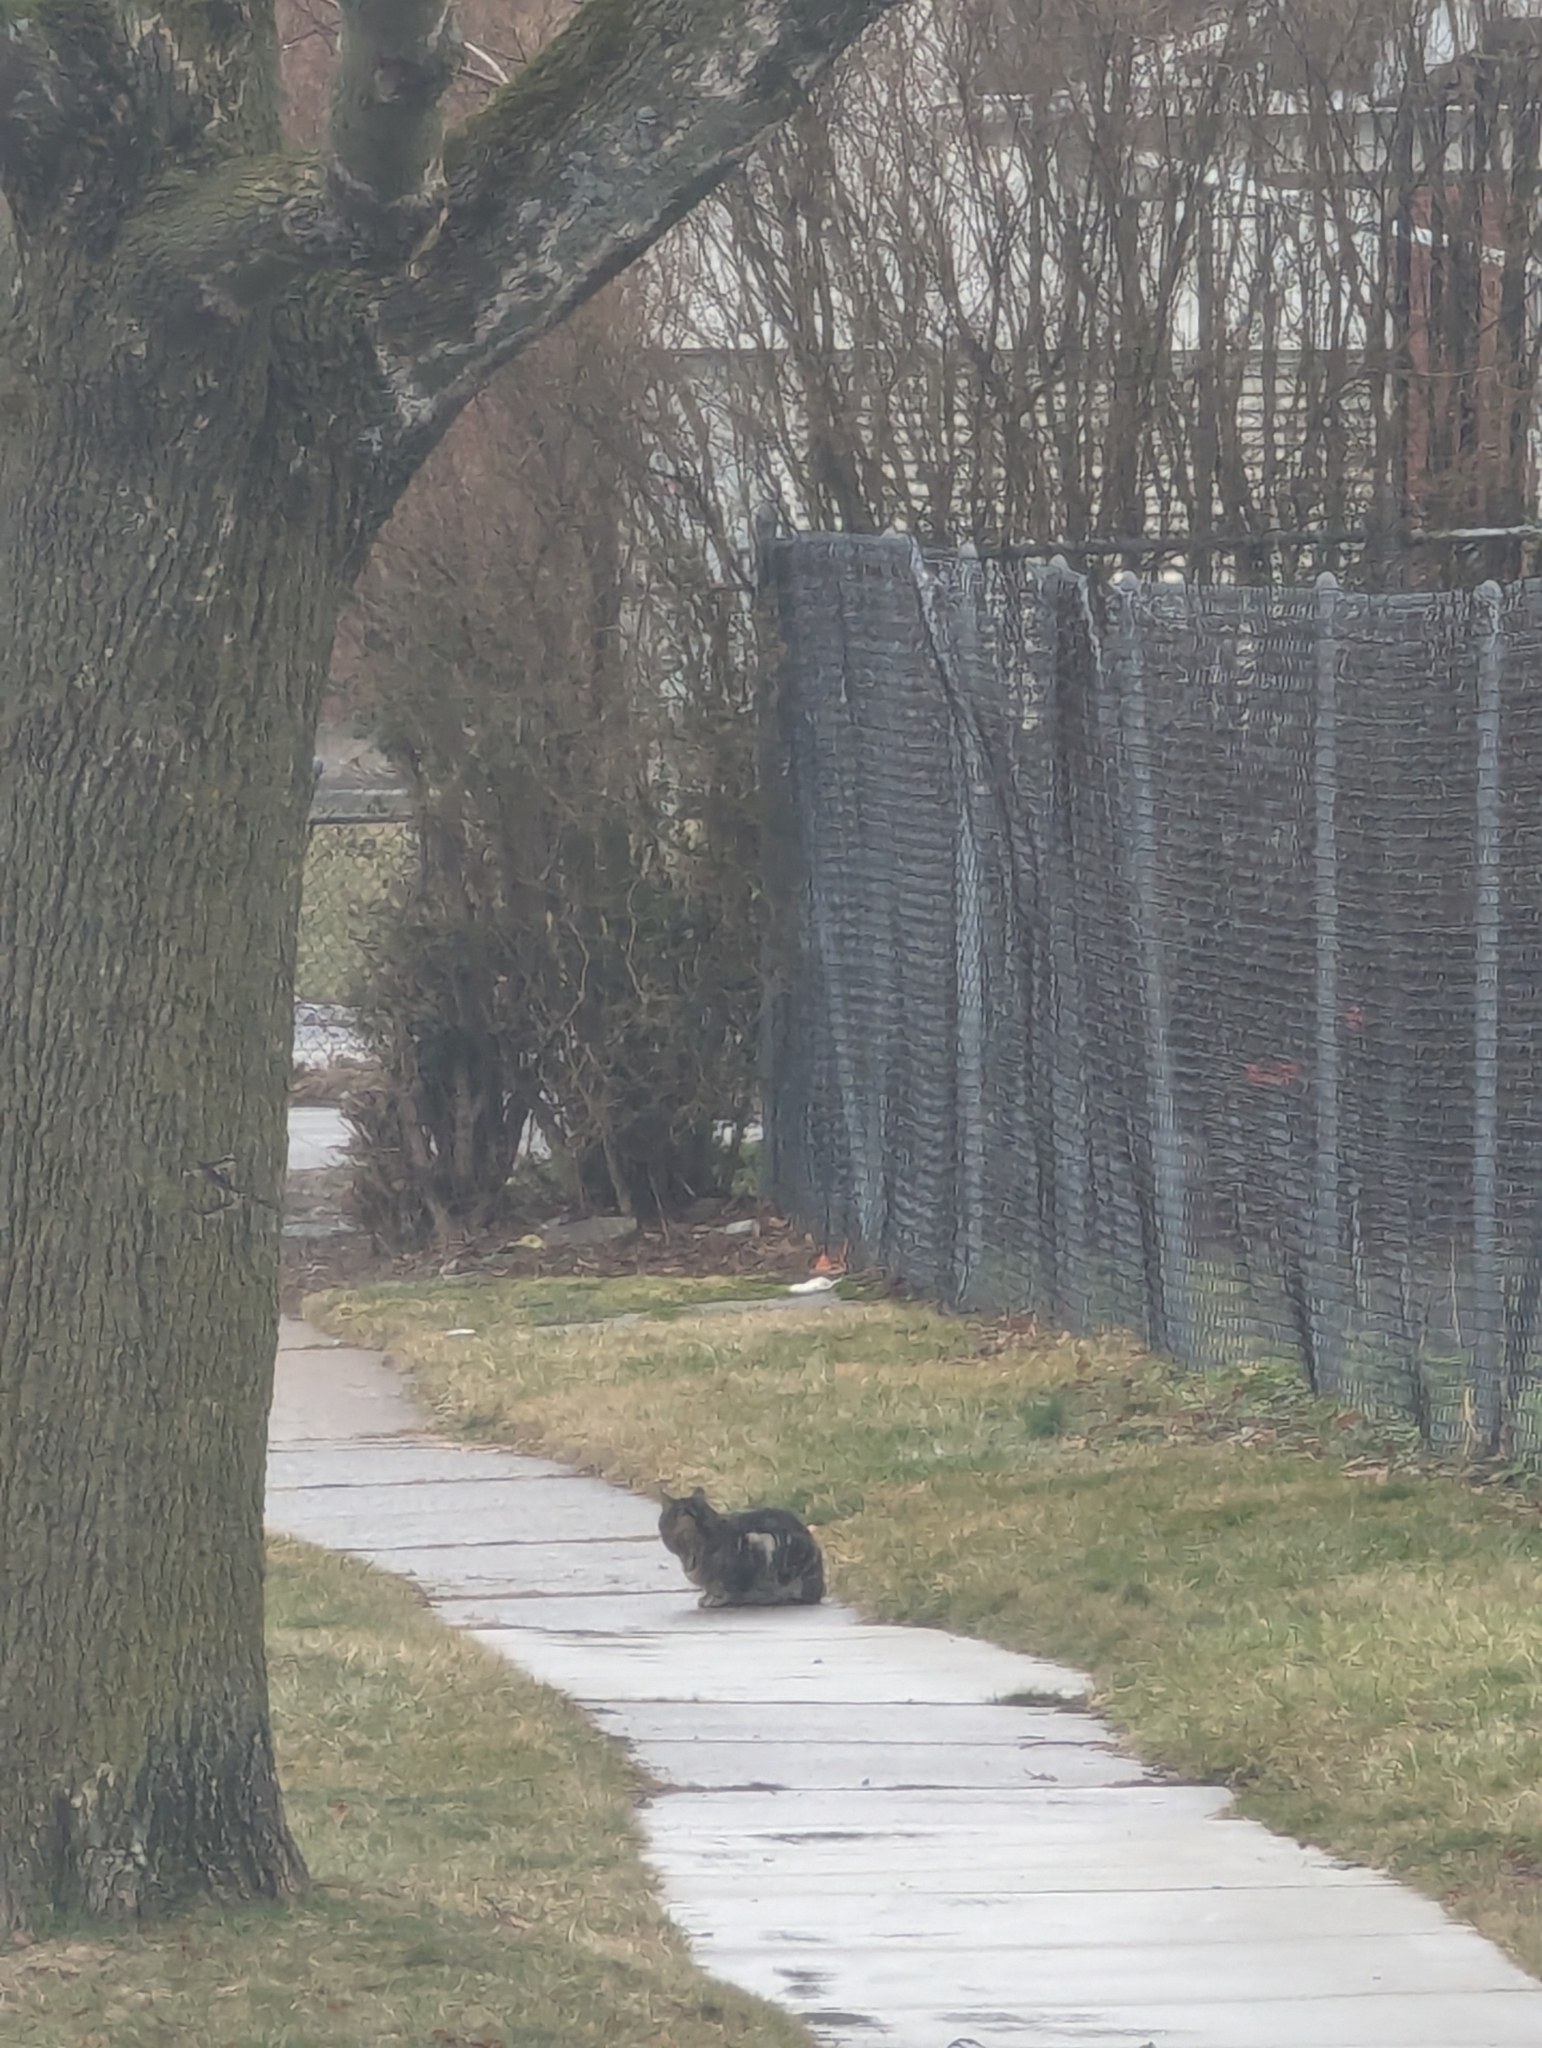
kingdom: Animalia
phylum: Chordata
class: Mammalia
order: Carnivora
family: Felidae
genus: Felis
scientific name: Felis catus
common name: Domestic cat
